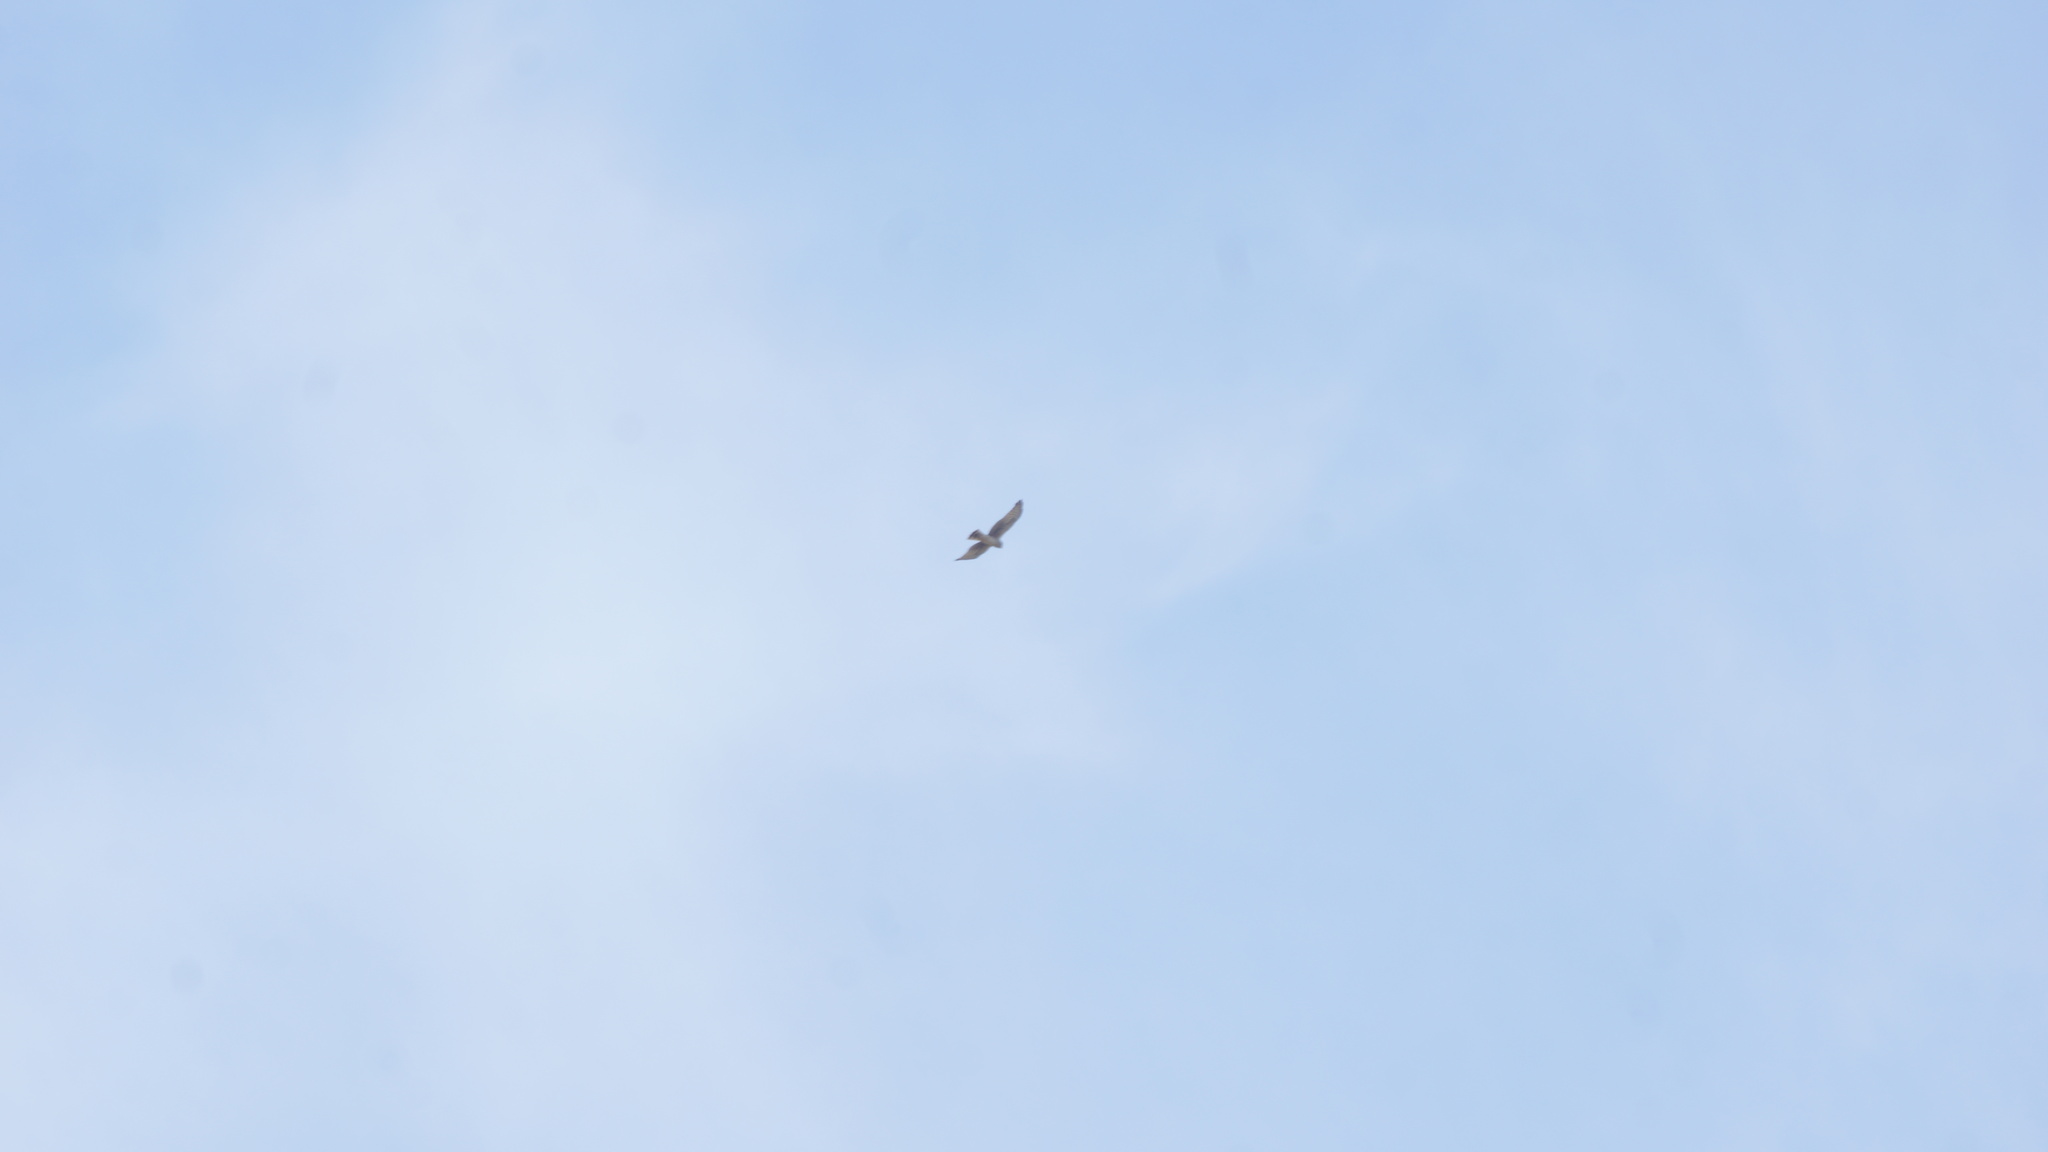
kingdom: Animalia
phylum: Chordata
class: Aves
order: Accipitriformes
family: Accipitridae
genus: Circus
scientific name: Circus cyaneus
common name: Hen harrier
